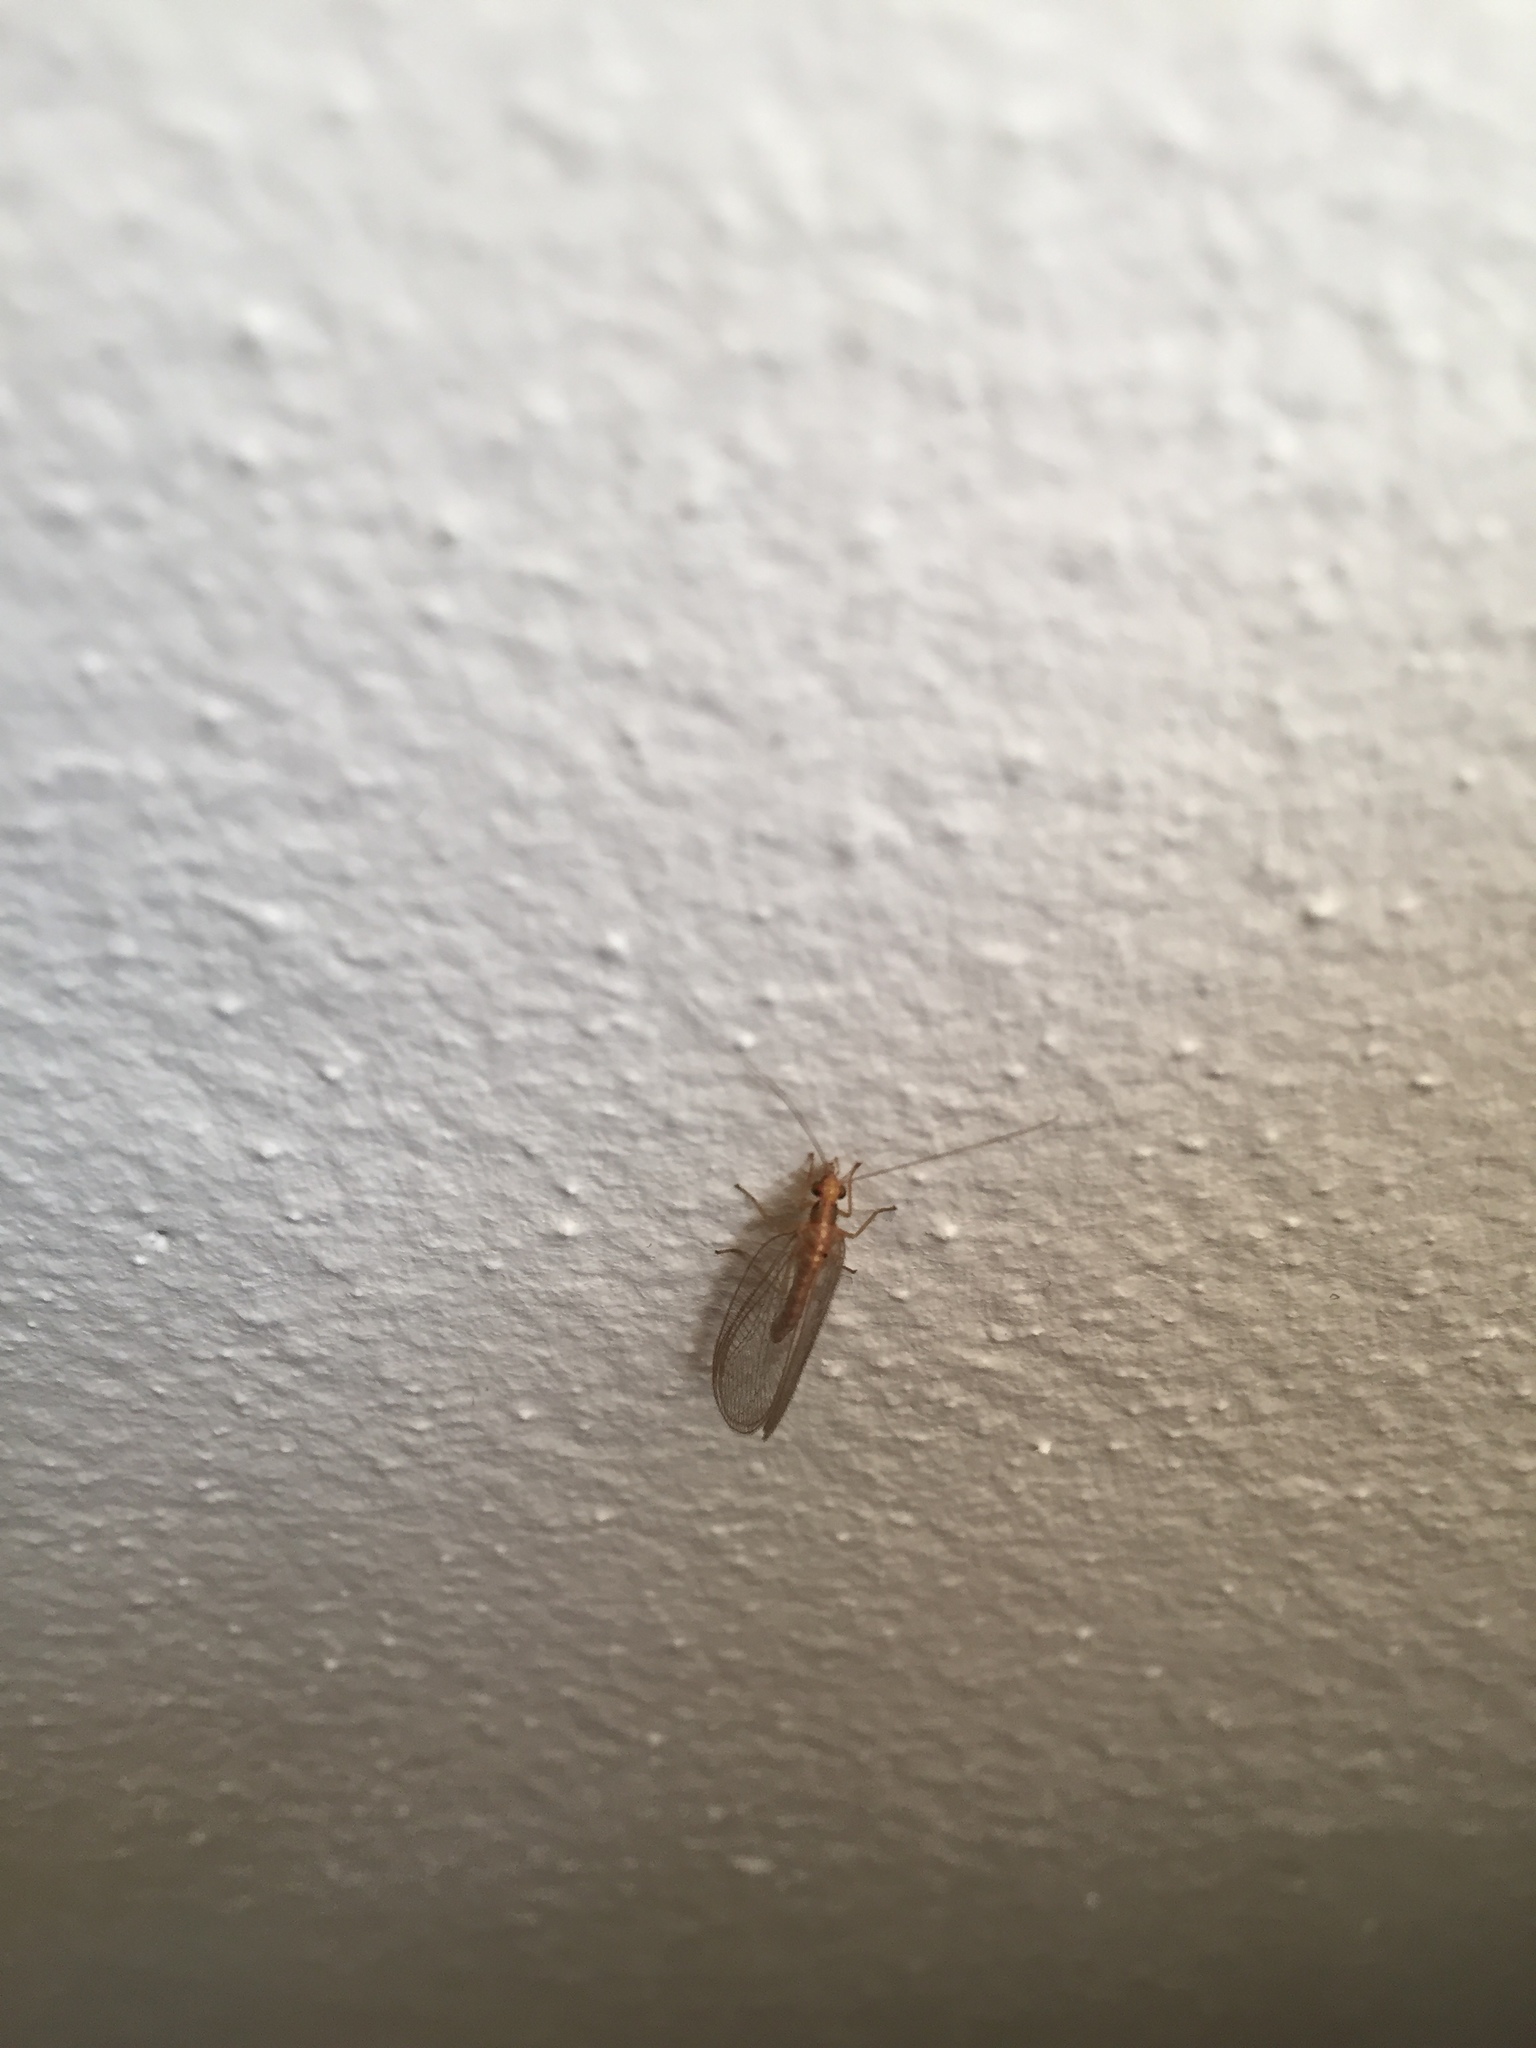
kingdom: Animalia
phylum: Arthropoda
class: Insecta
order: Neuroptera
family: Chrysopidae
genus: Chrysoperla
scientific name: Chrysoperla
